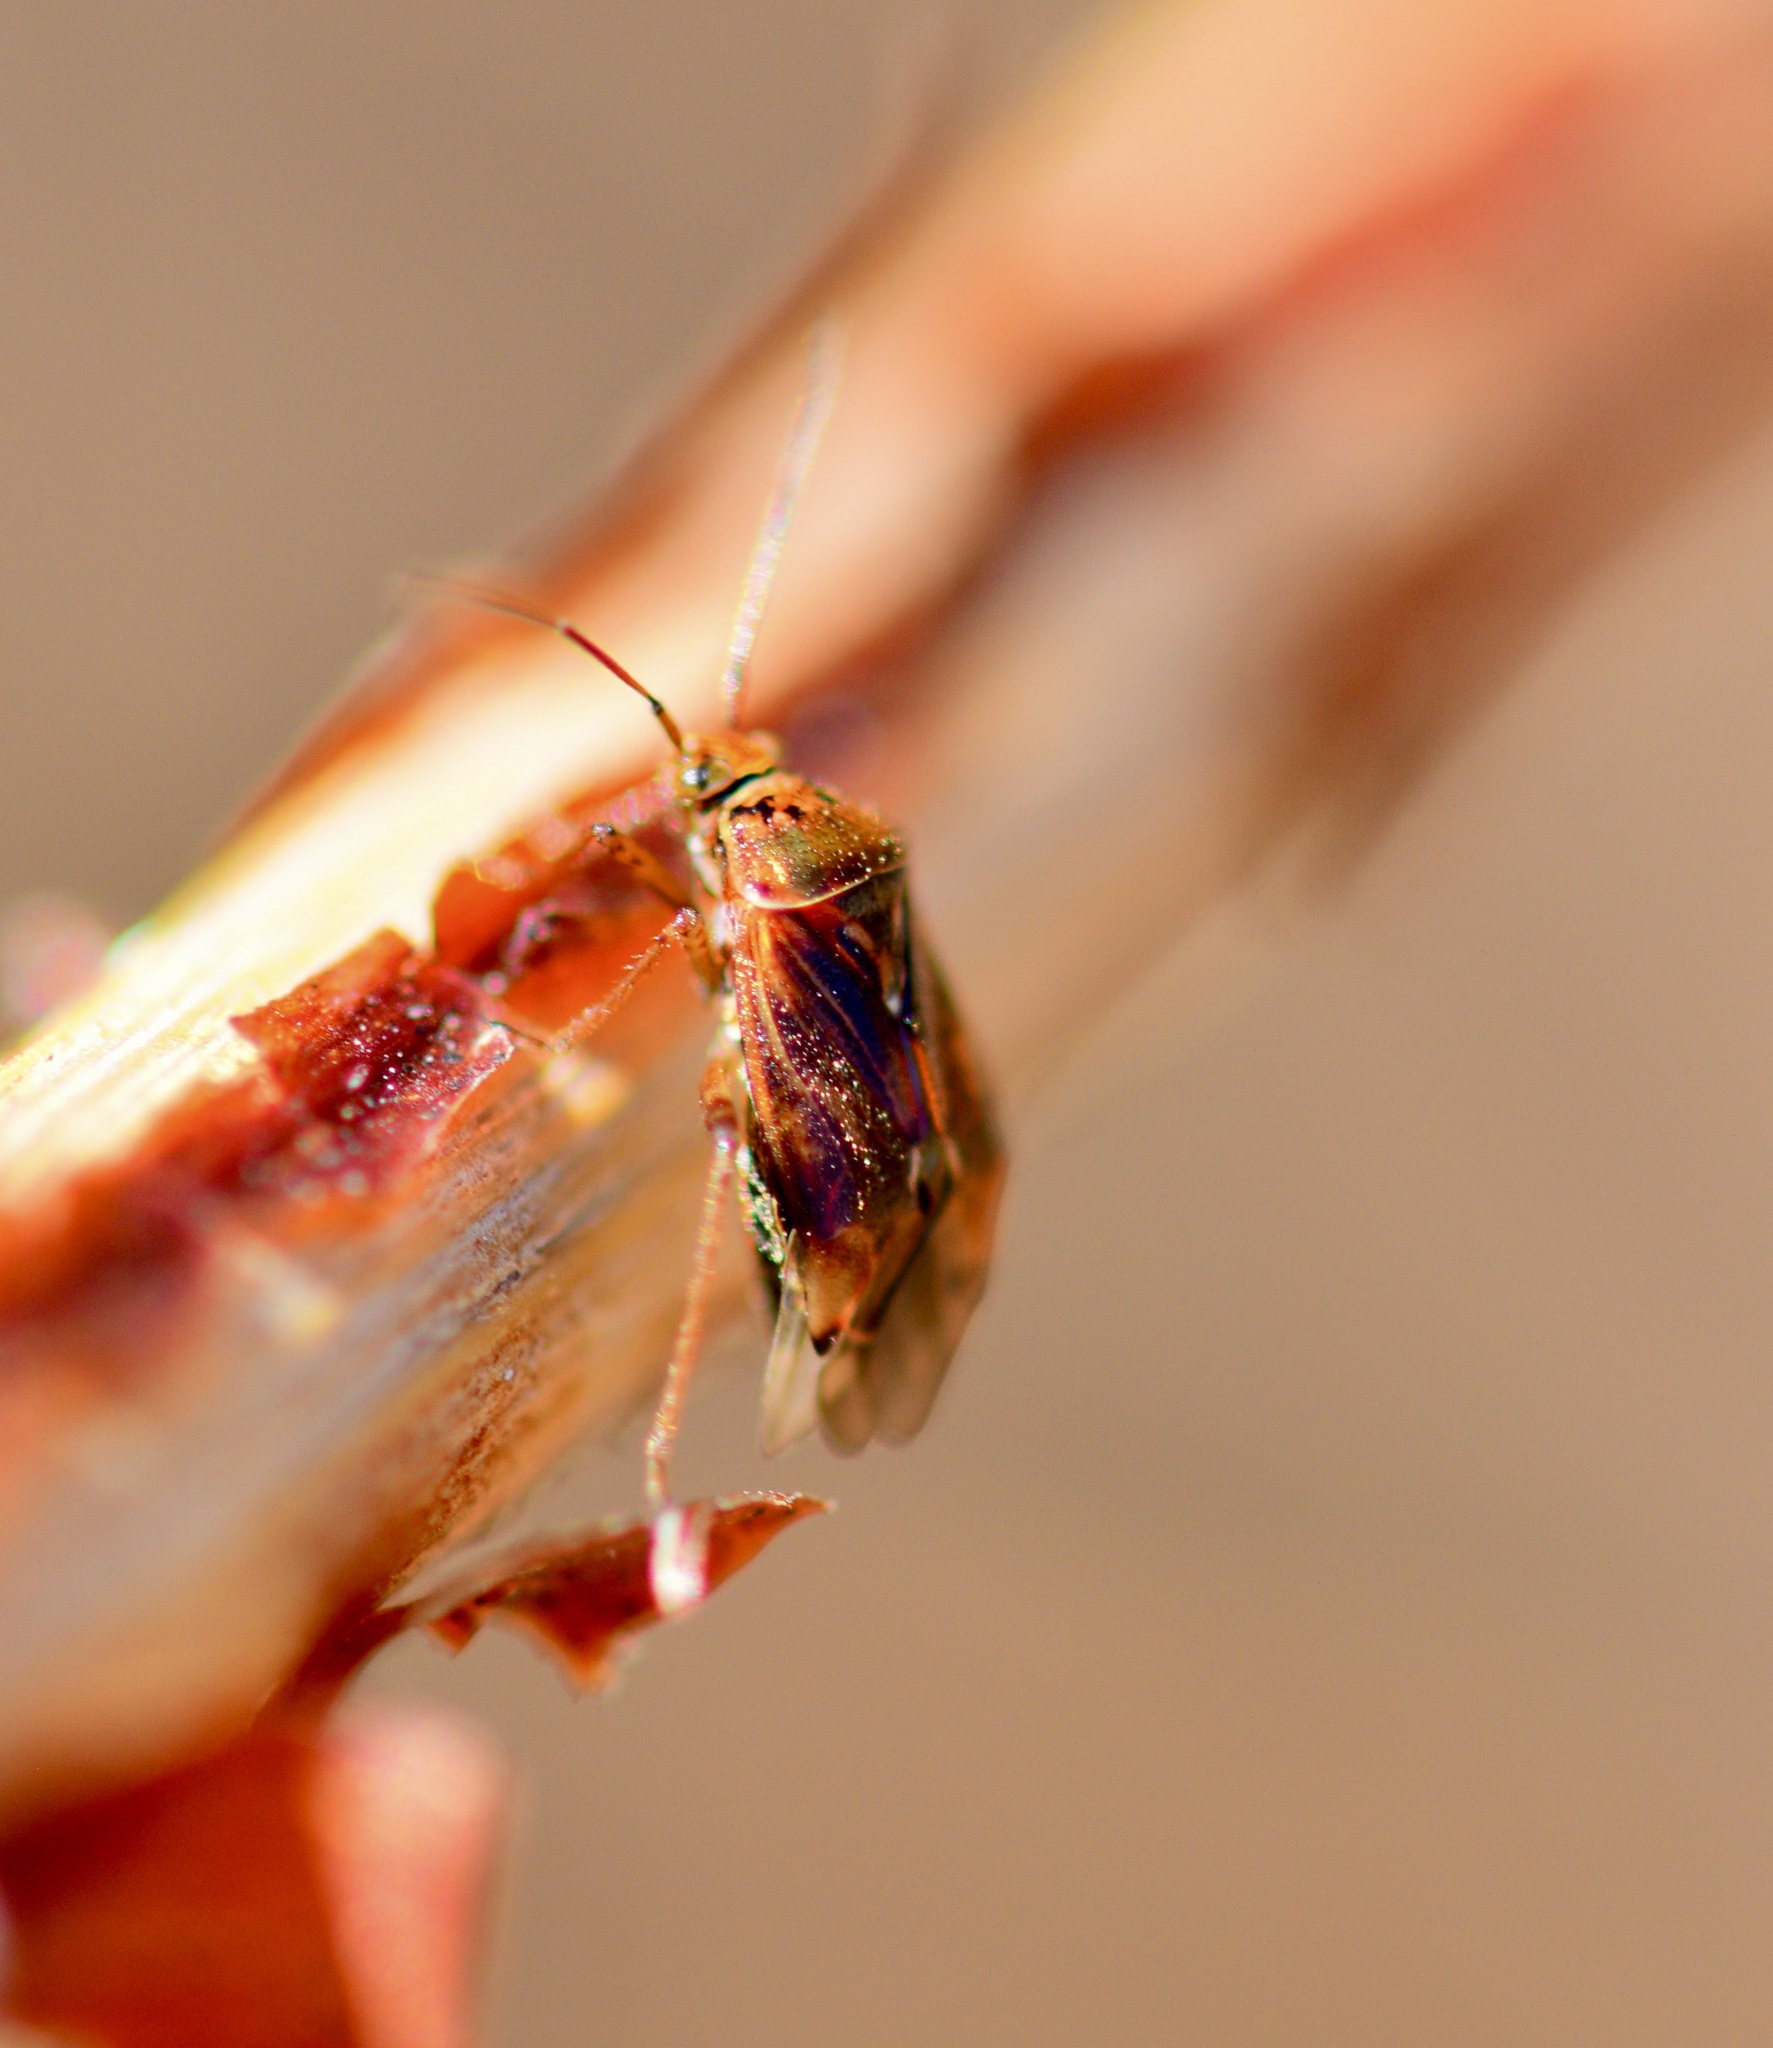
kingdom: Animalia
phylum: Arthropoda
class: Insecta
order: Hemiptera
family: Miridae
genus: Lygus
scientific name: Lygus lineolaris
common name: North american tarnished plant bug
